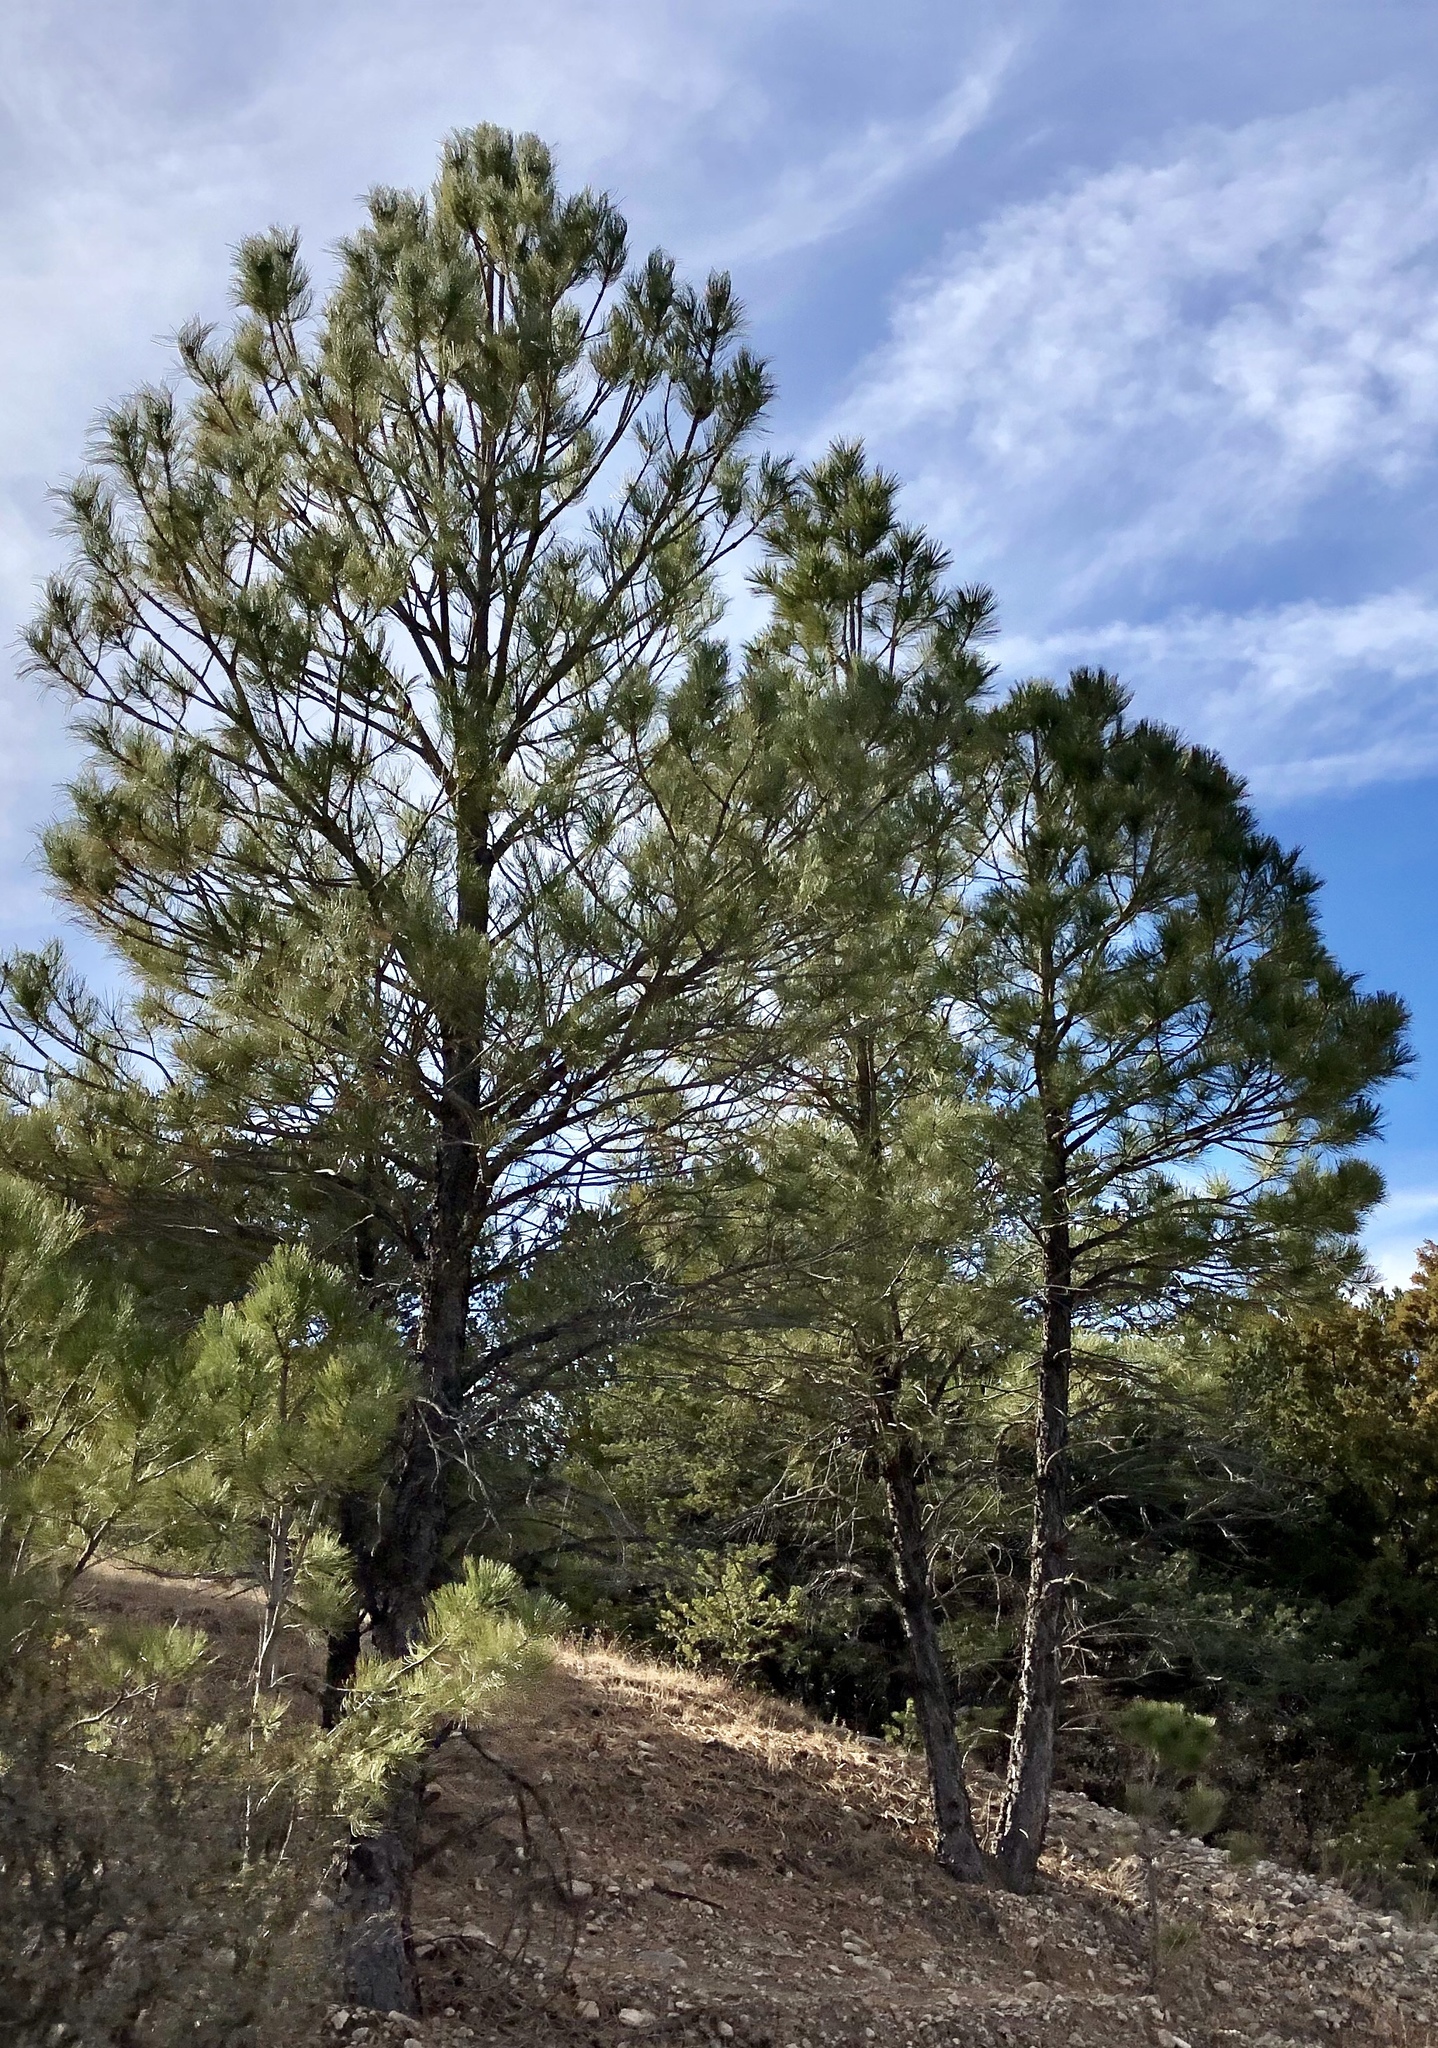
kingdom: Plantae
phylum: Tracheophyta
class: Pinopsida
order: Pinales
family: Pinaceae
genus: Pinus
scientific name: Pinus ponderosa
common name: Western yellow-pine
